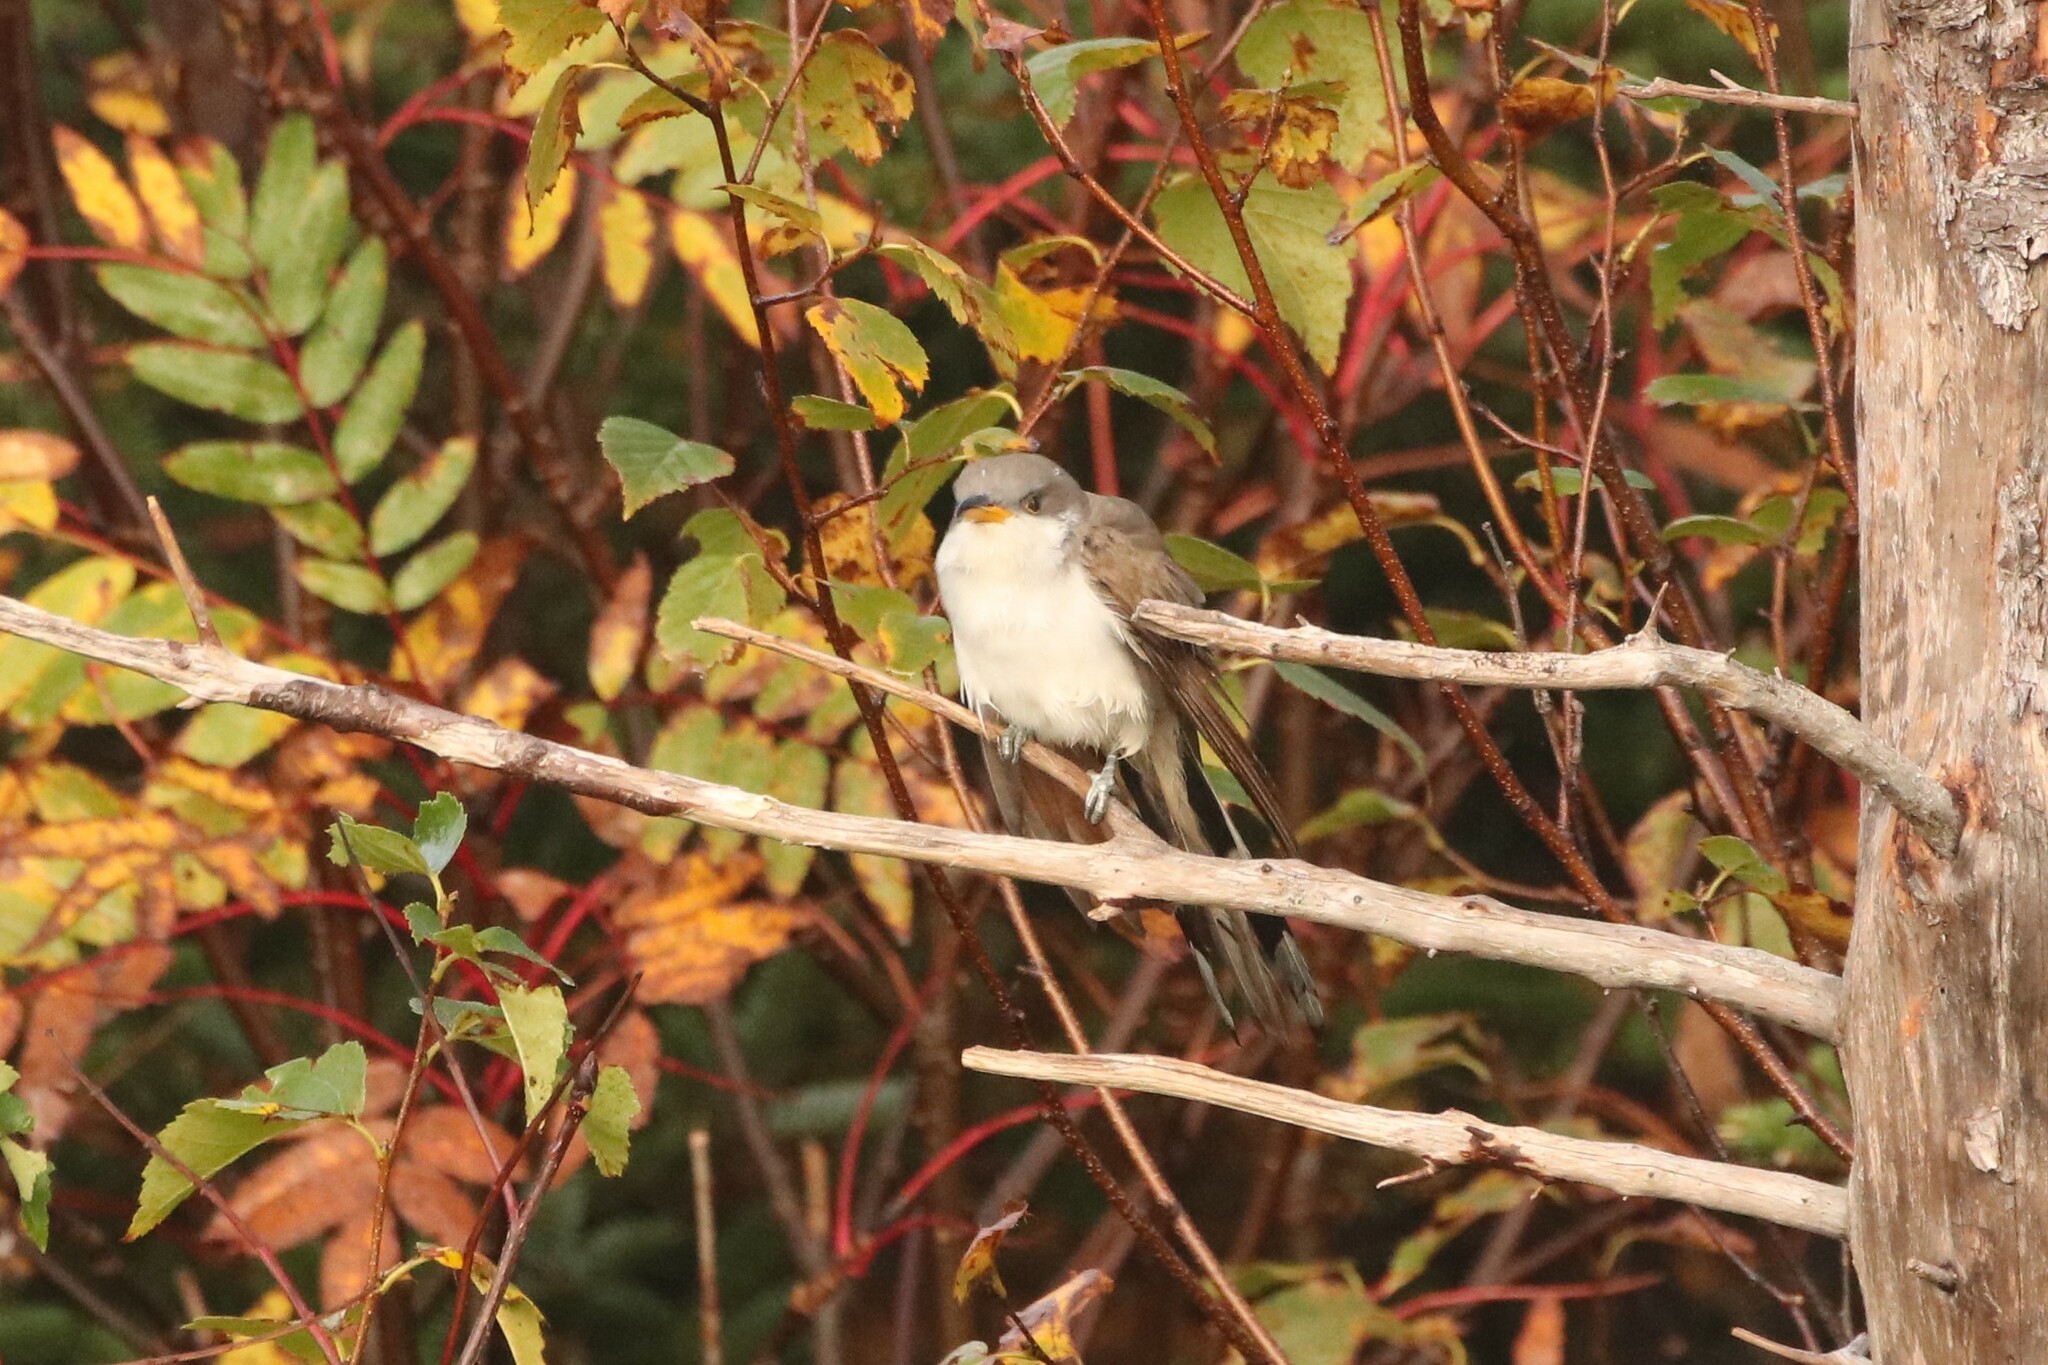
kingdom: Animalia
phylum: Chordata
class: Aves
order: Cuculiformes
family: Cuculidae
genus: Coccyzus
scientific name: Coccyzus americanus
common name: Yellow-billed cuckoo
